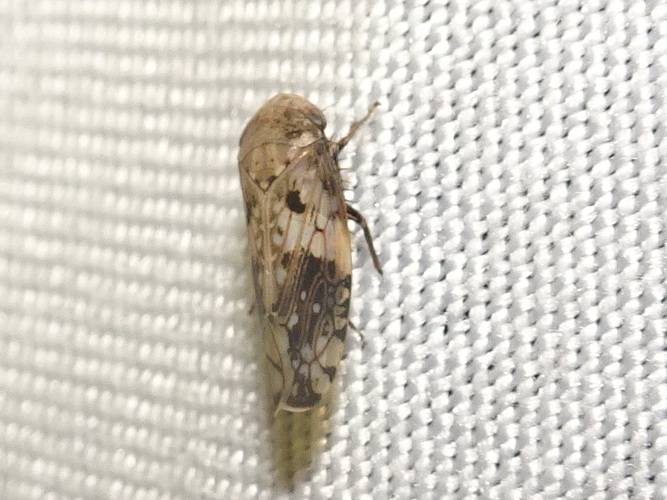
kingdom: Animalia
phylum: Arthropoda
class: Insecta
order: Hemiptera
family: Cicadellidae
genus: Menosoma
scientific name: Menosoma cinctum
